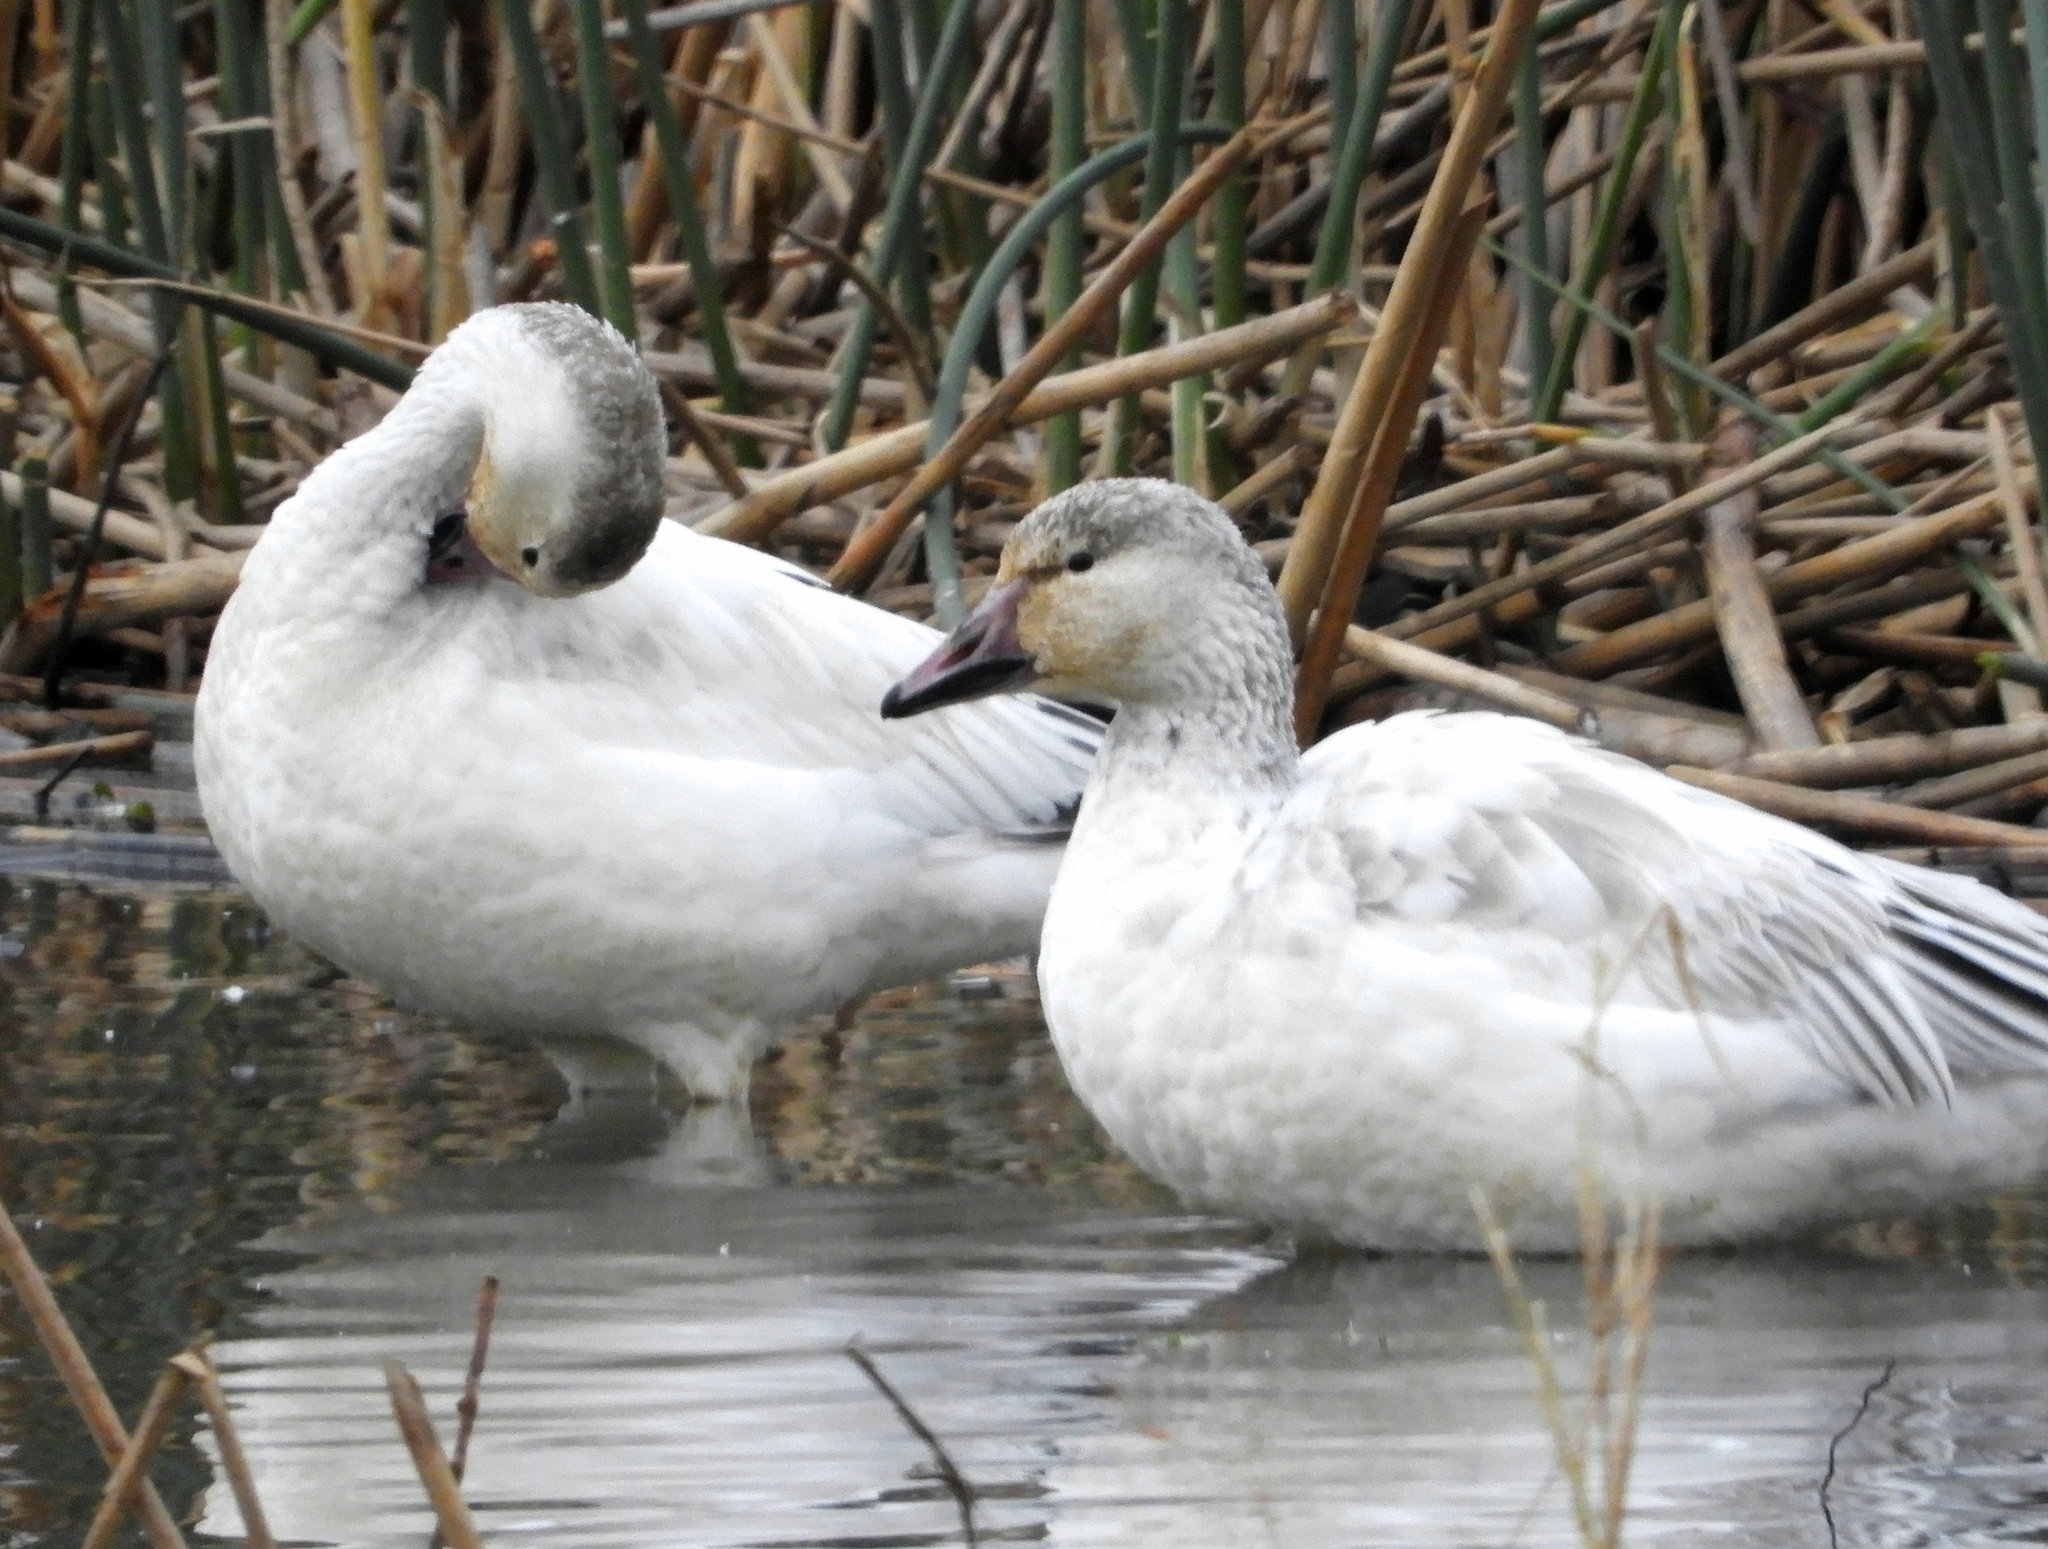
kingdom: Animalia
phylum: Chordata
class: Aves
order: Anseriformes
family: Anatidae
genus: Anser
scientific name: Anser caerulescens
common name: Snow goose
